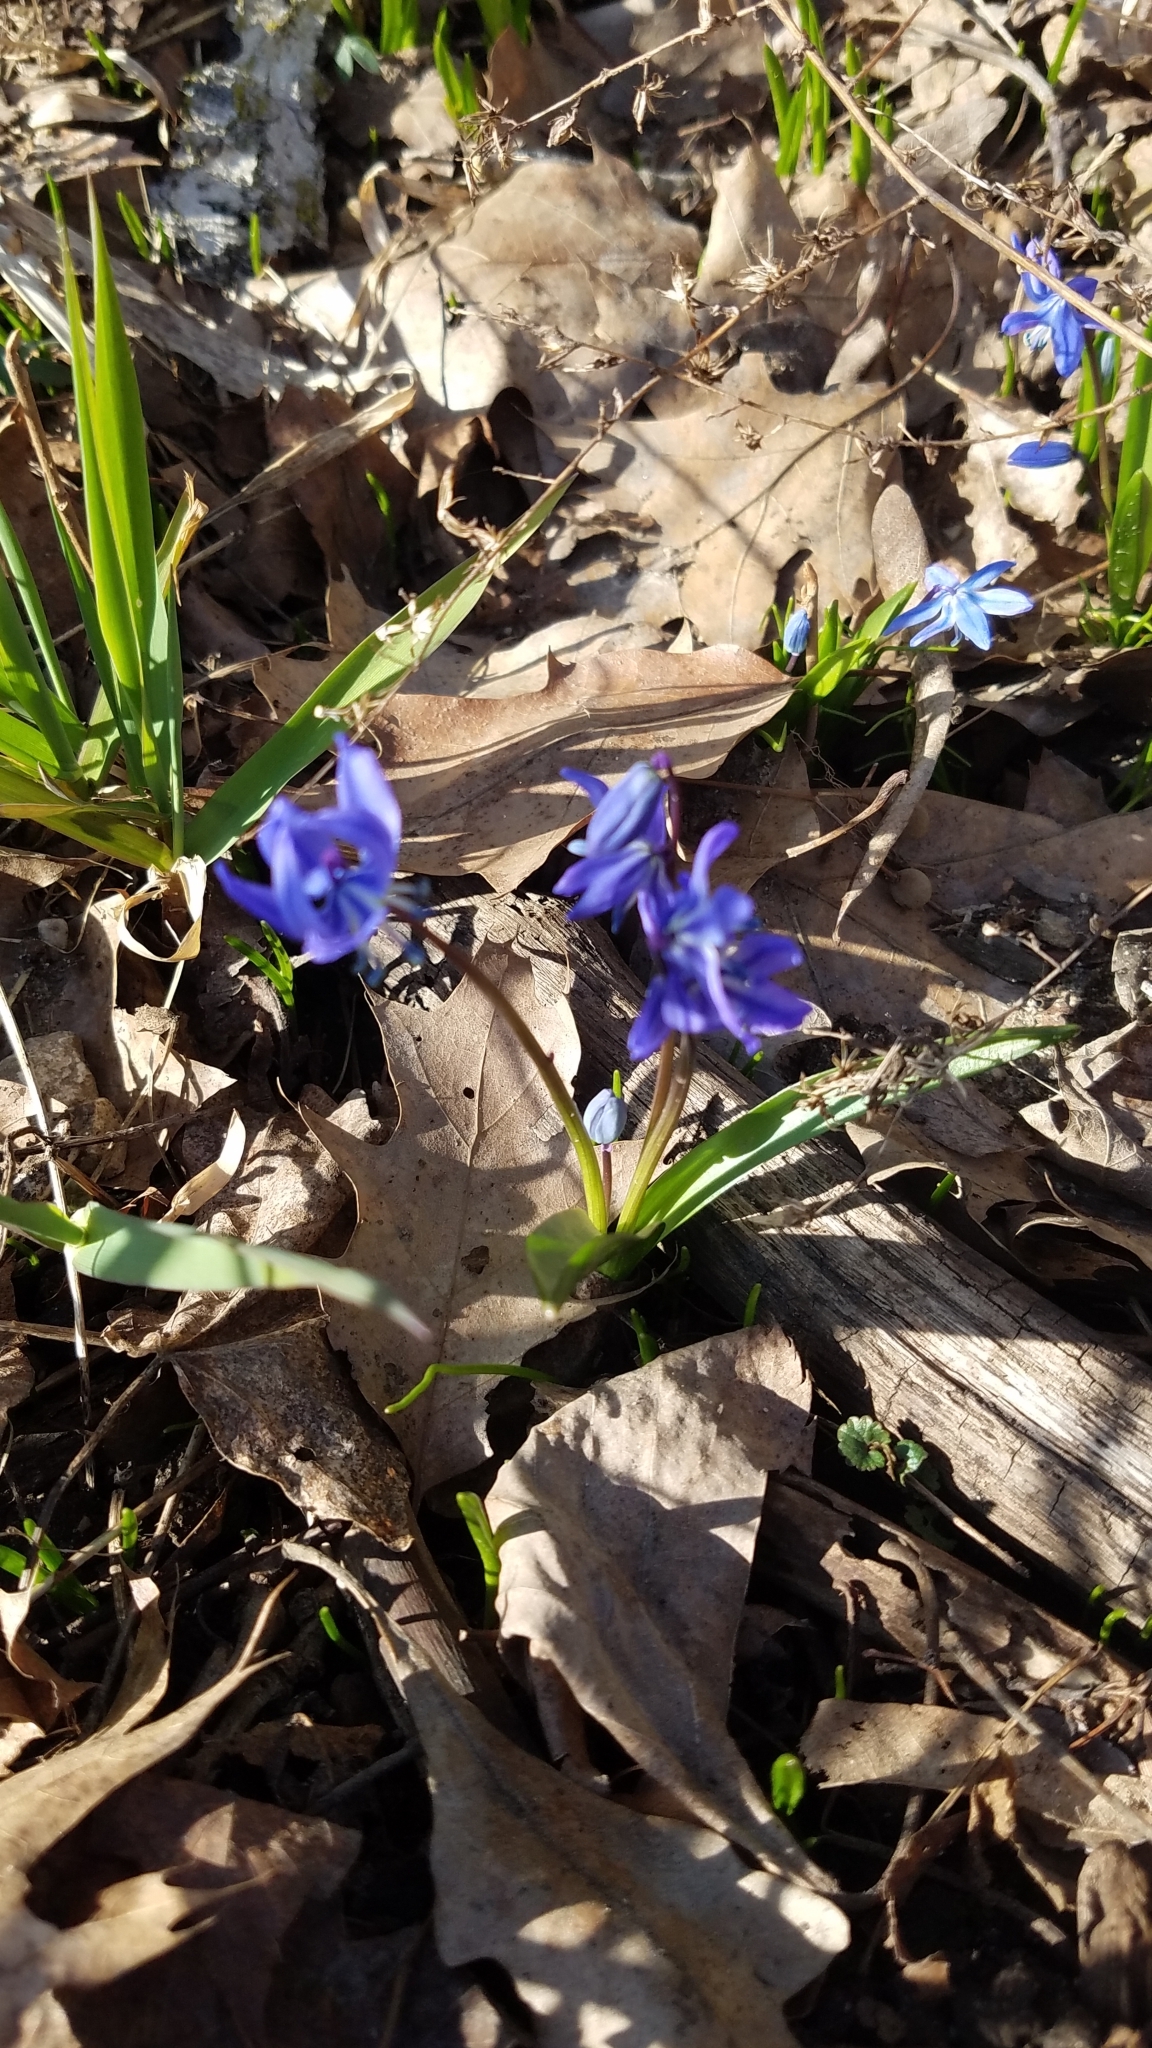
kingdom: Plantae
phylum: Tracheophyta
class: Liliopsida
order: Asparagales
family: Asparagaceae
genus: Scilla
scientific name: Scilla siberica
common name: Siberian squill
